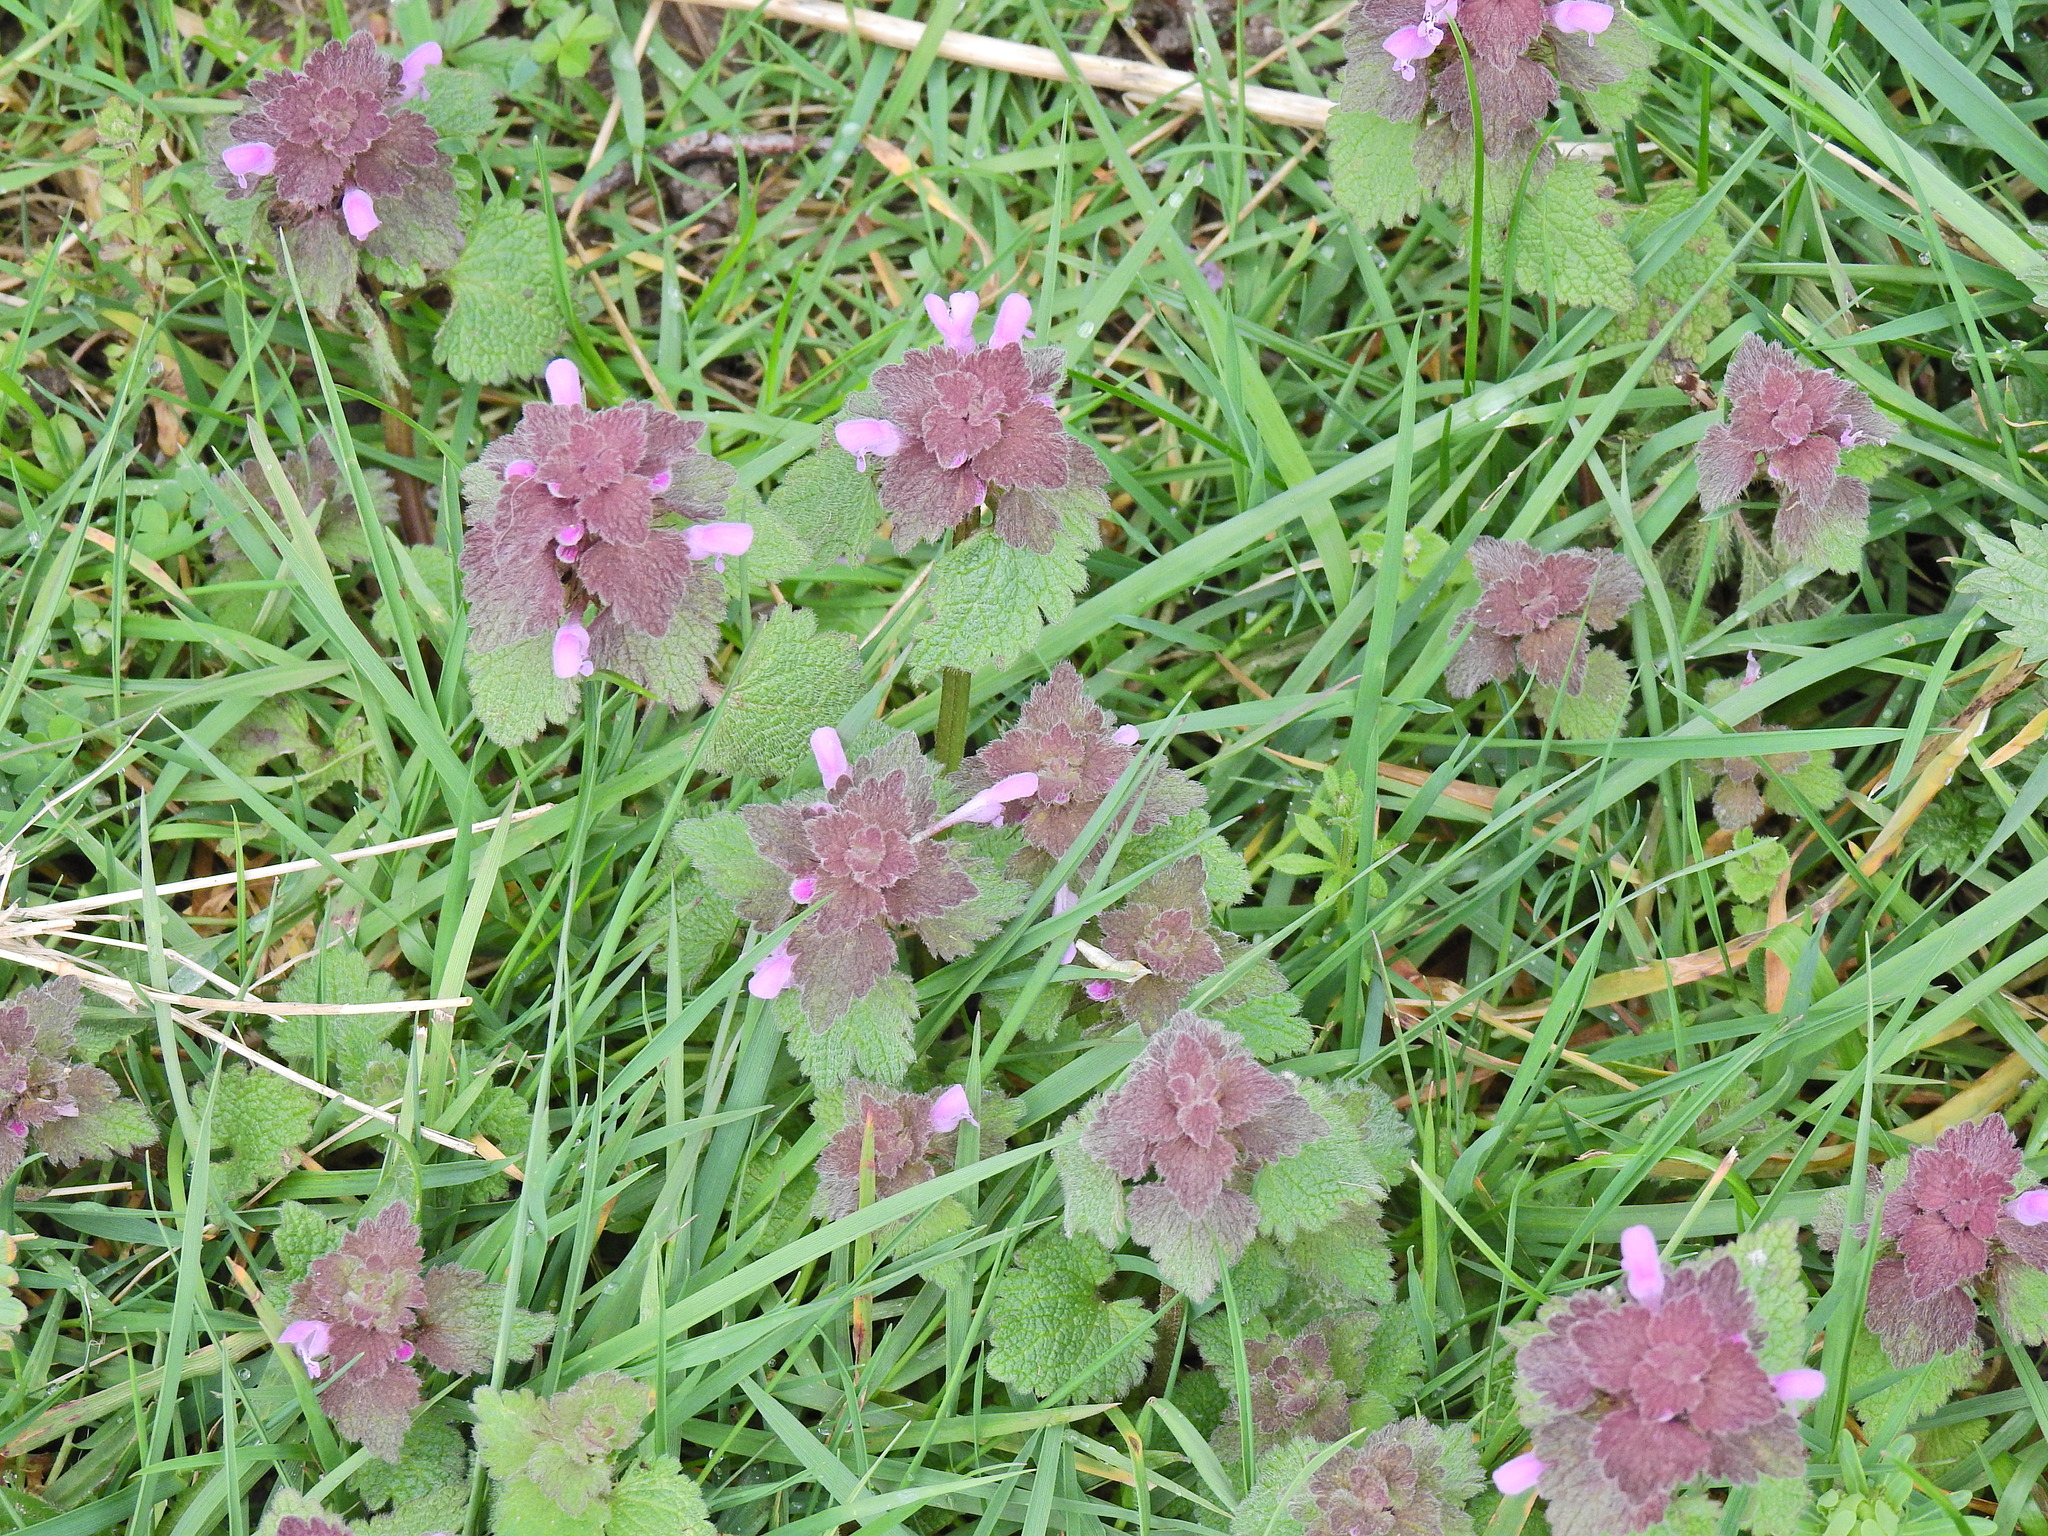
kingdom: Plantae
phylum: Tracheophyta
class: Magnoliopsida
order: Lamiales
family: Lamiaceae
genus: Lamium
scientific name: Lamium purpureum
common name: Red dead-nettle
